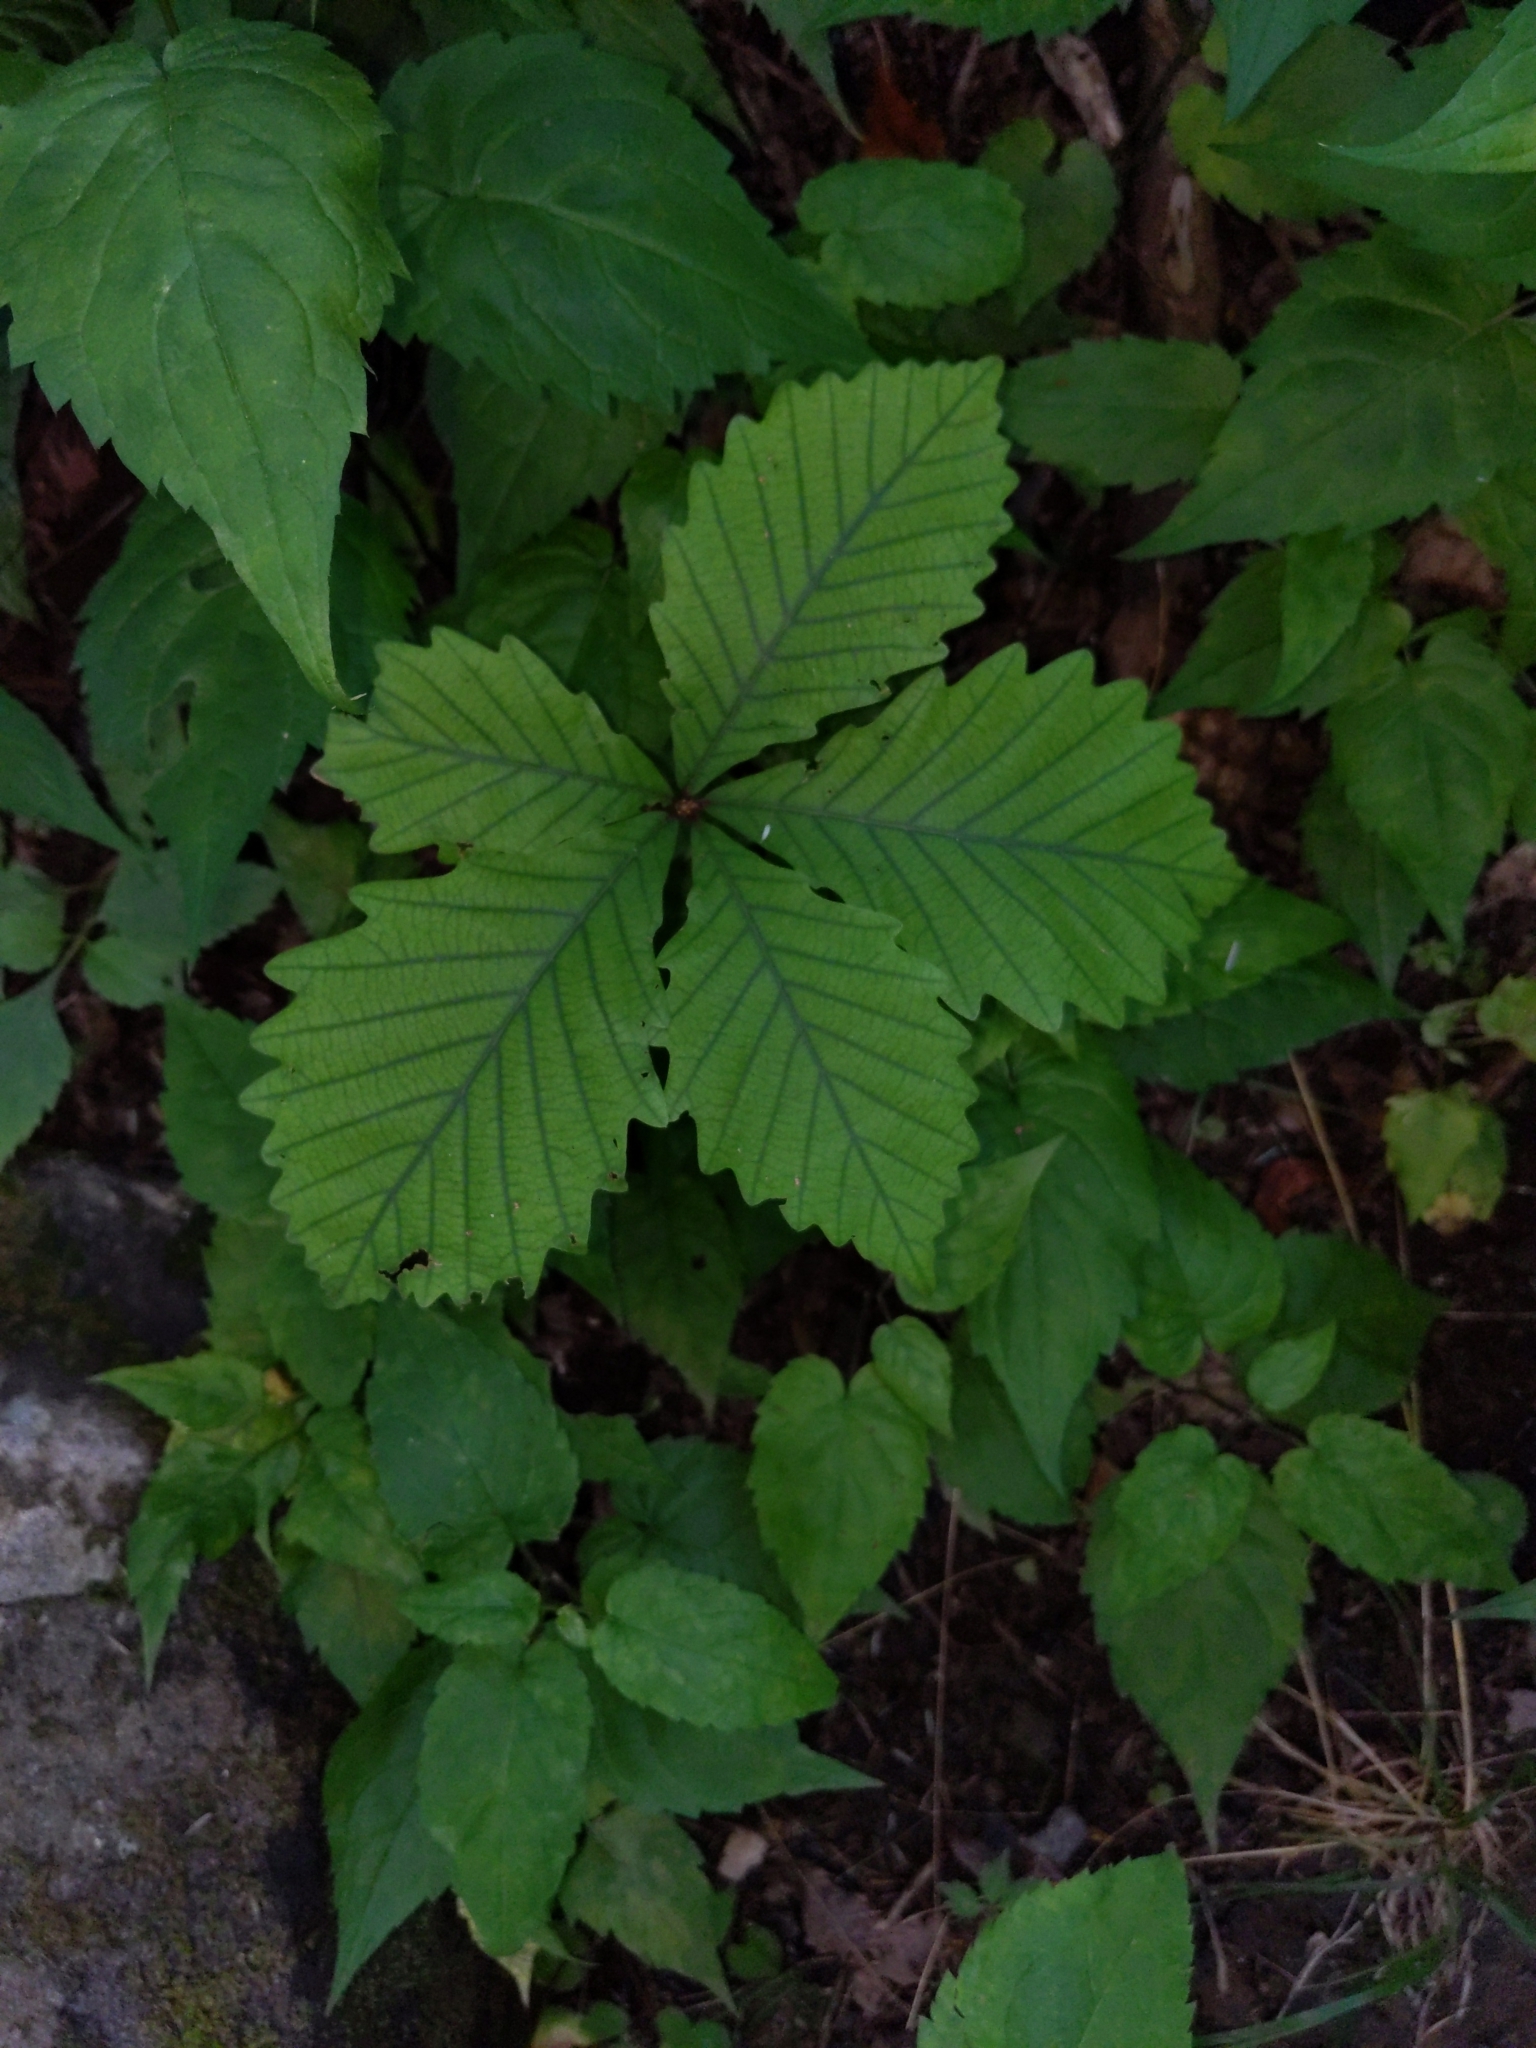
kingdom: Plantae
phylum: Tracheophyta
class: Magnoliopsida
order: Fagales
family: Fagaceae
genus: Quercus
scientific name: Quercus
